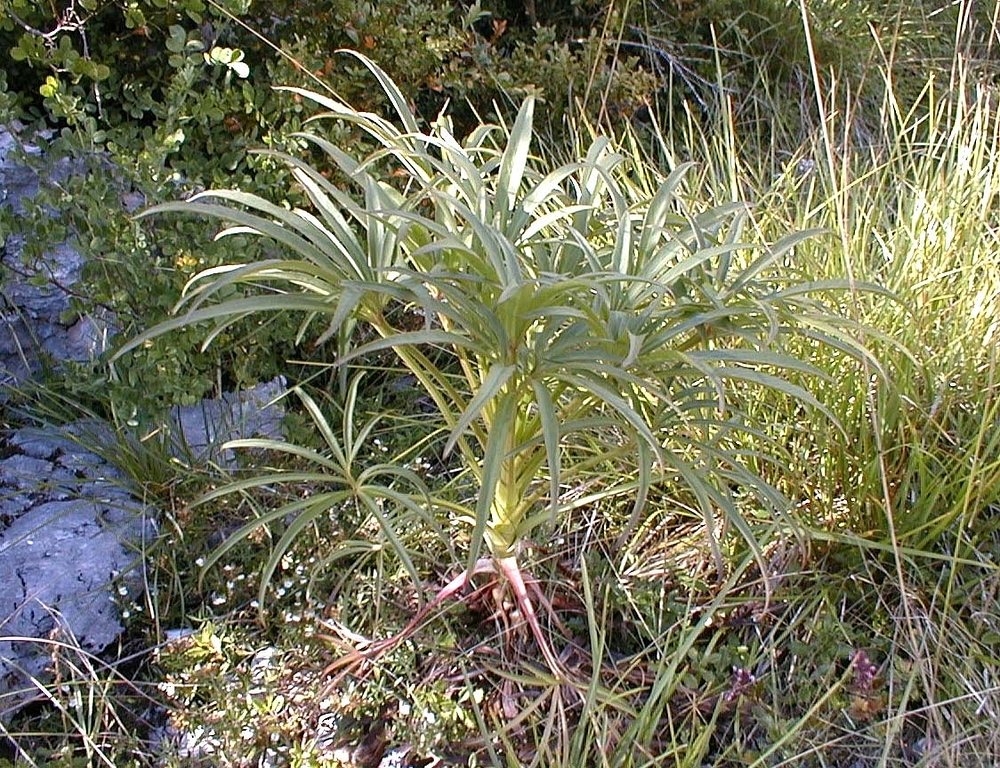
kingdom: Plantae
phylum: Tracheophyta
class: Magnoliopsida
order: Ranunculales
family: Ranunculaceae
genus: Helleborus
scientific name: Helleborus foetidus
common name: Stinking hellebore
